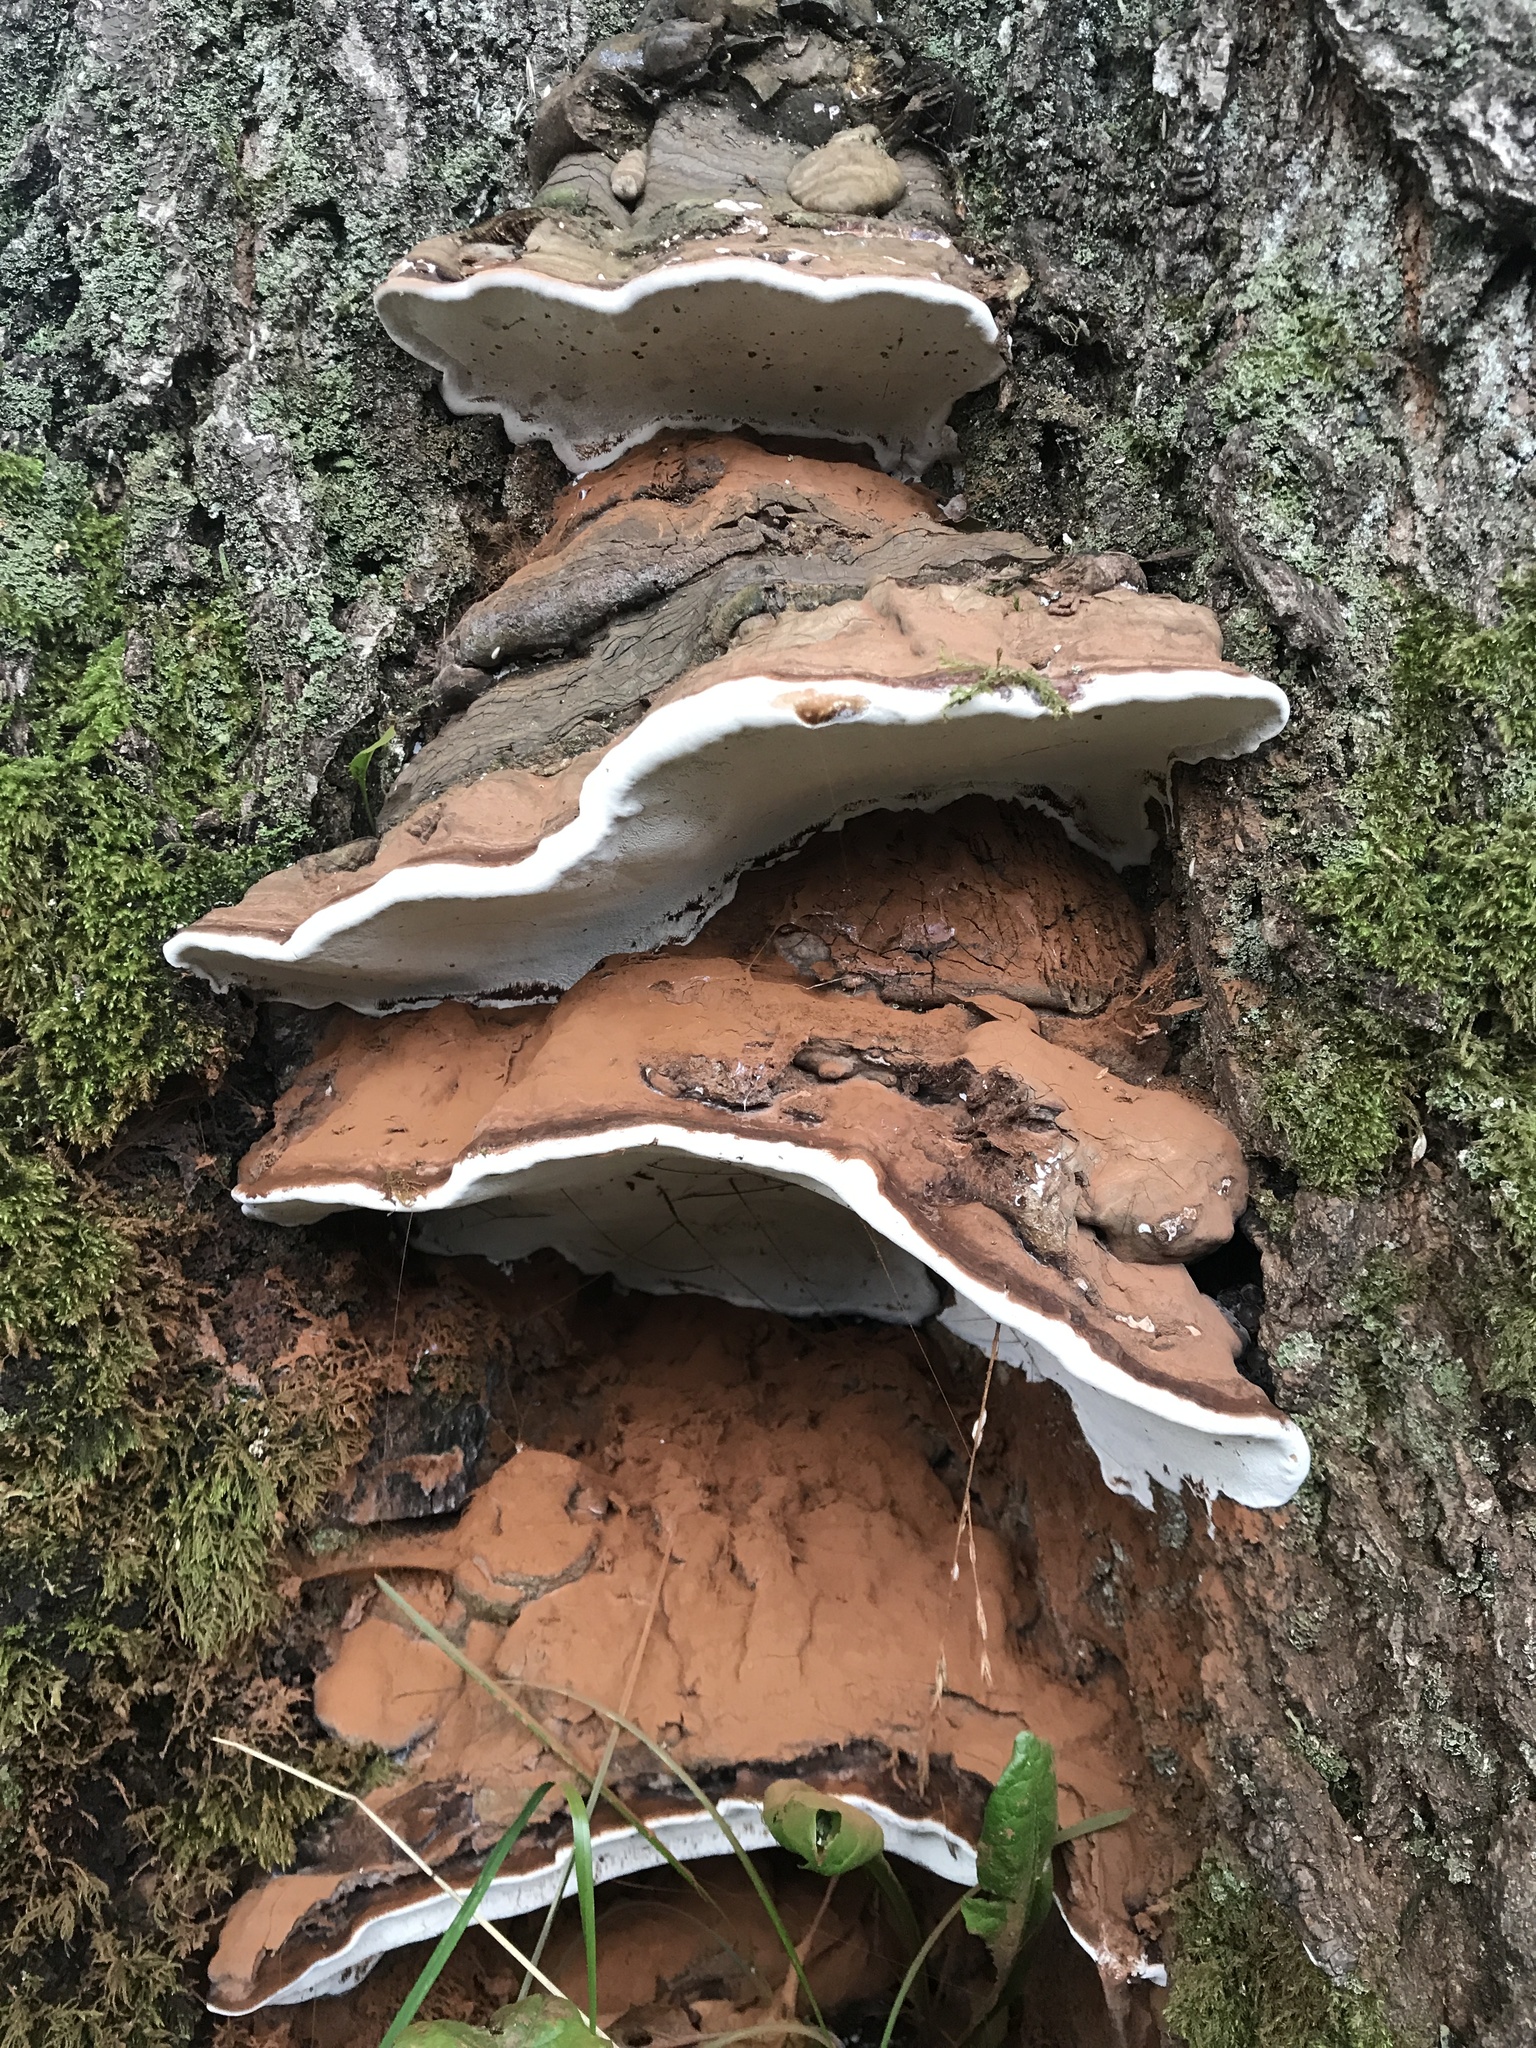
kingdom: Fungi
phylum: Basidiomycota
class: Agaricomycetes
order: Polyporales
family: Polyporaceae
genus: Ganoderma
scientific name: Ganoderma brownii
